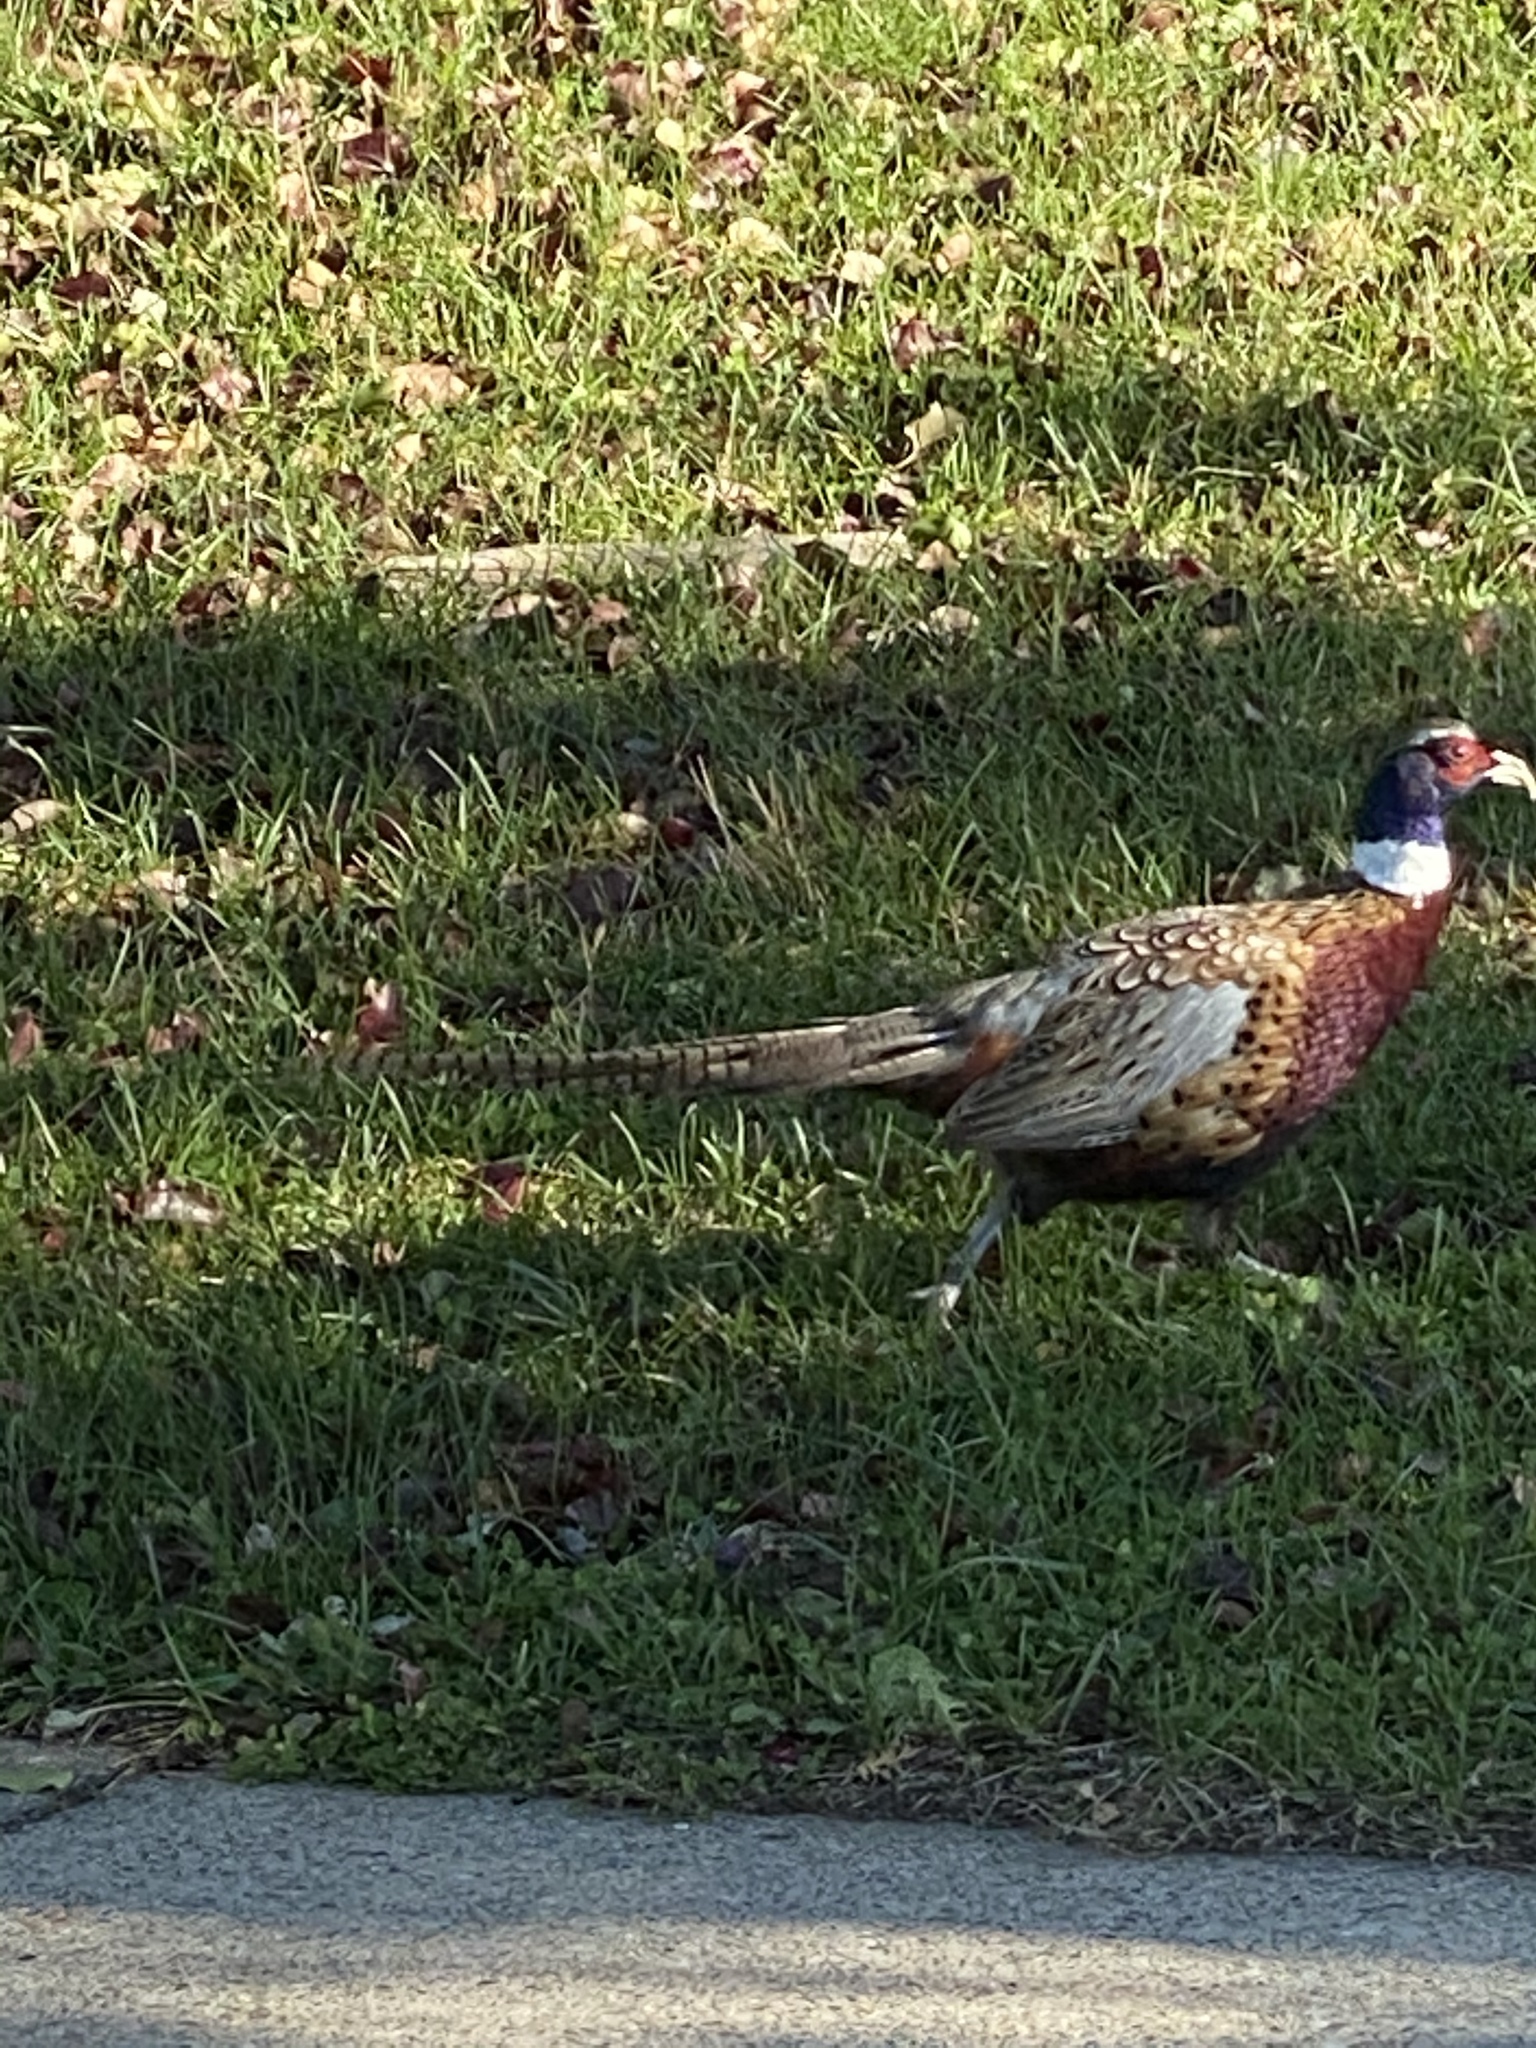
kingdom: Animalia
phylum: Chordata
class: Aves
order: Galliformes
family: Phasianidae
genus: Phasianus
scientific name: Phasianus colchicus
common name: Common pheasant
